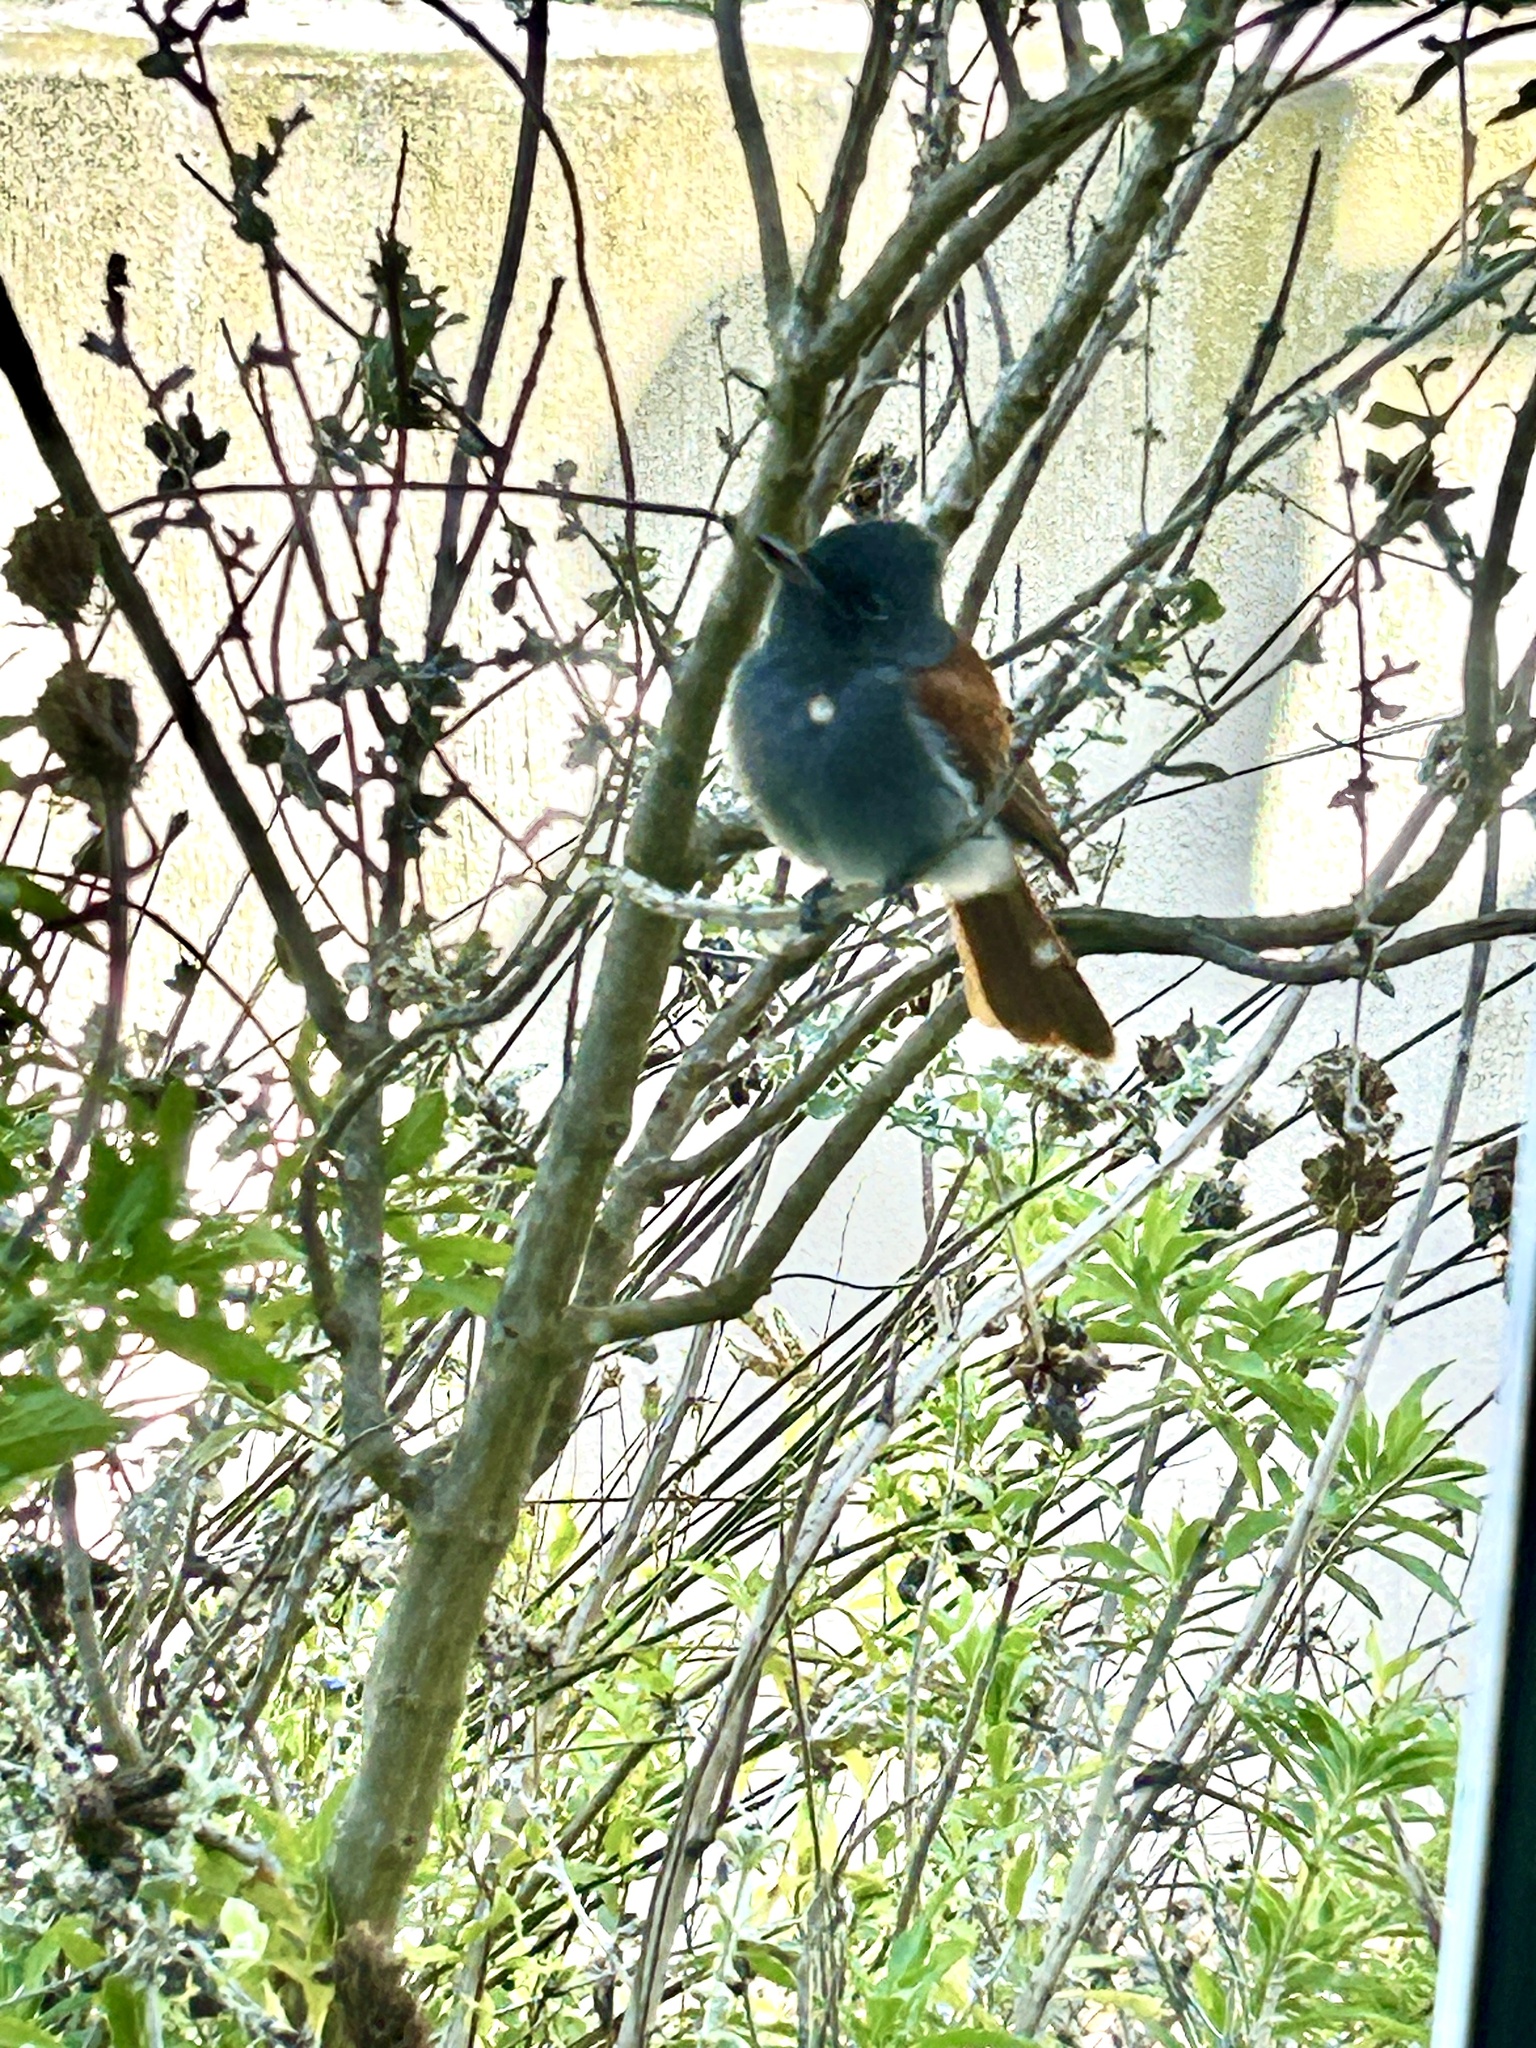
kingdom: Animalia
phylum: Chordata
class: Aves
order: Passeriformes
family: Monarchidae
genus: Terpsiphone
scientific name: Terpsiphone viridis
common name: African paradise flycatcher
